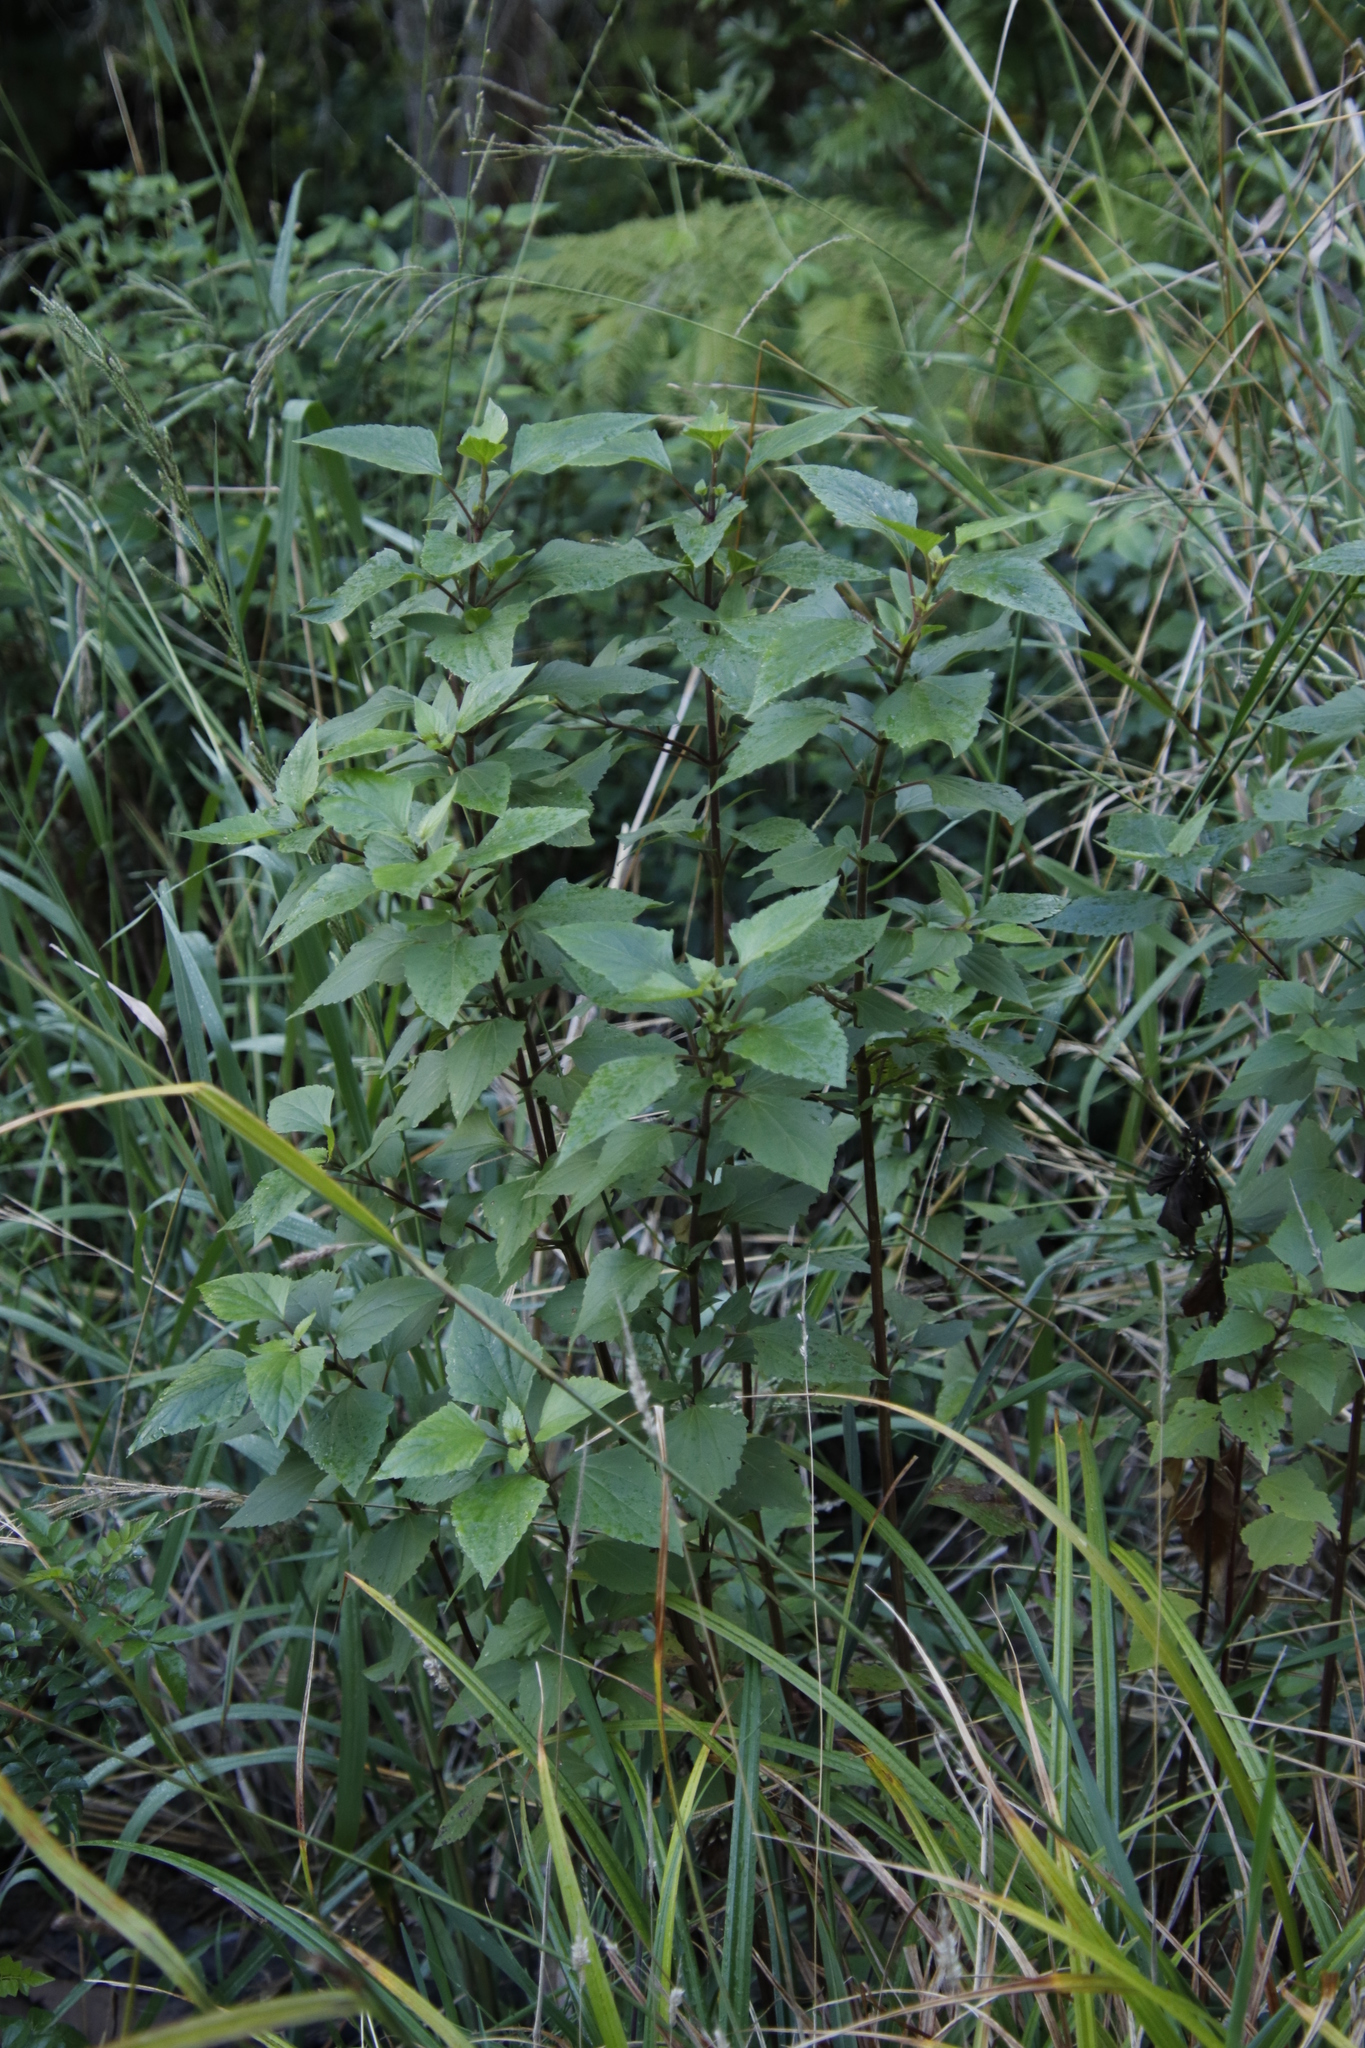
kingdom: Plantae
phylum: Tracheophyta
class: Magnoliopsida
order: Asterales
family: Asteraceae
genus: Ageratina
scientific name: Ageratina adenophora
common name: Sticky snakeroot
